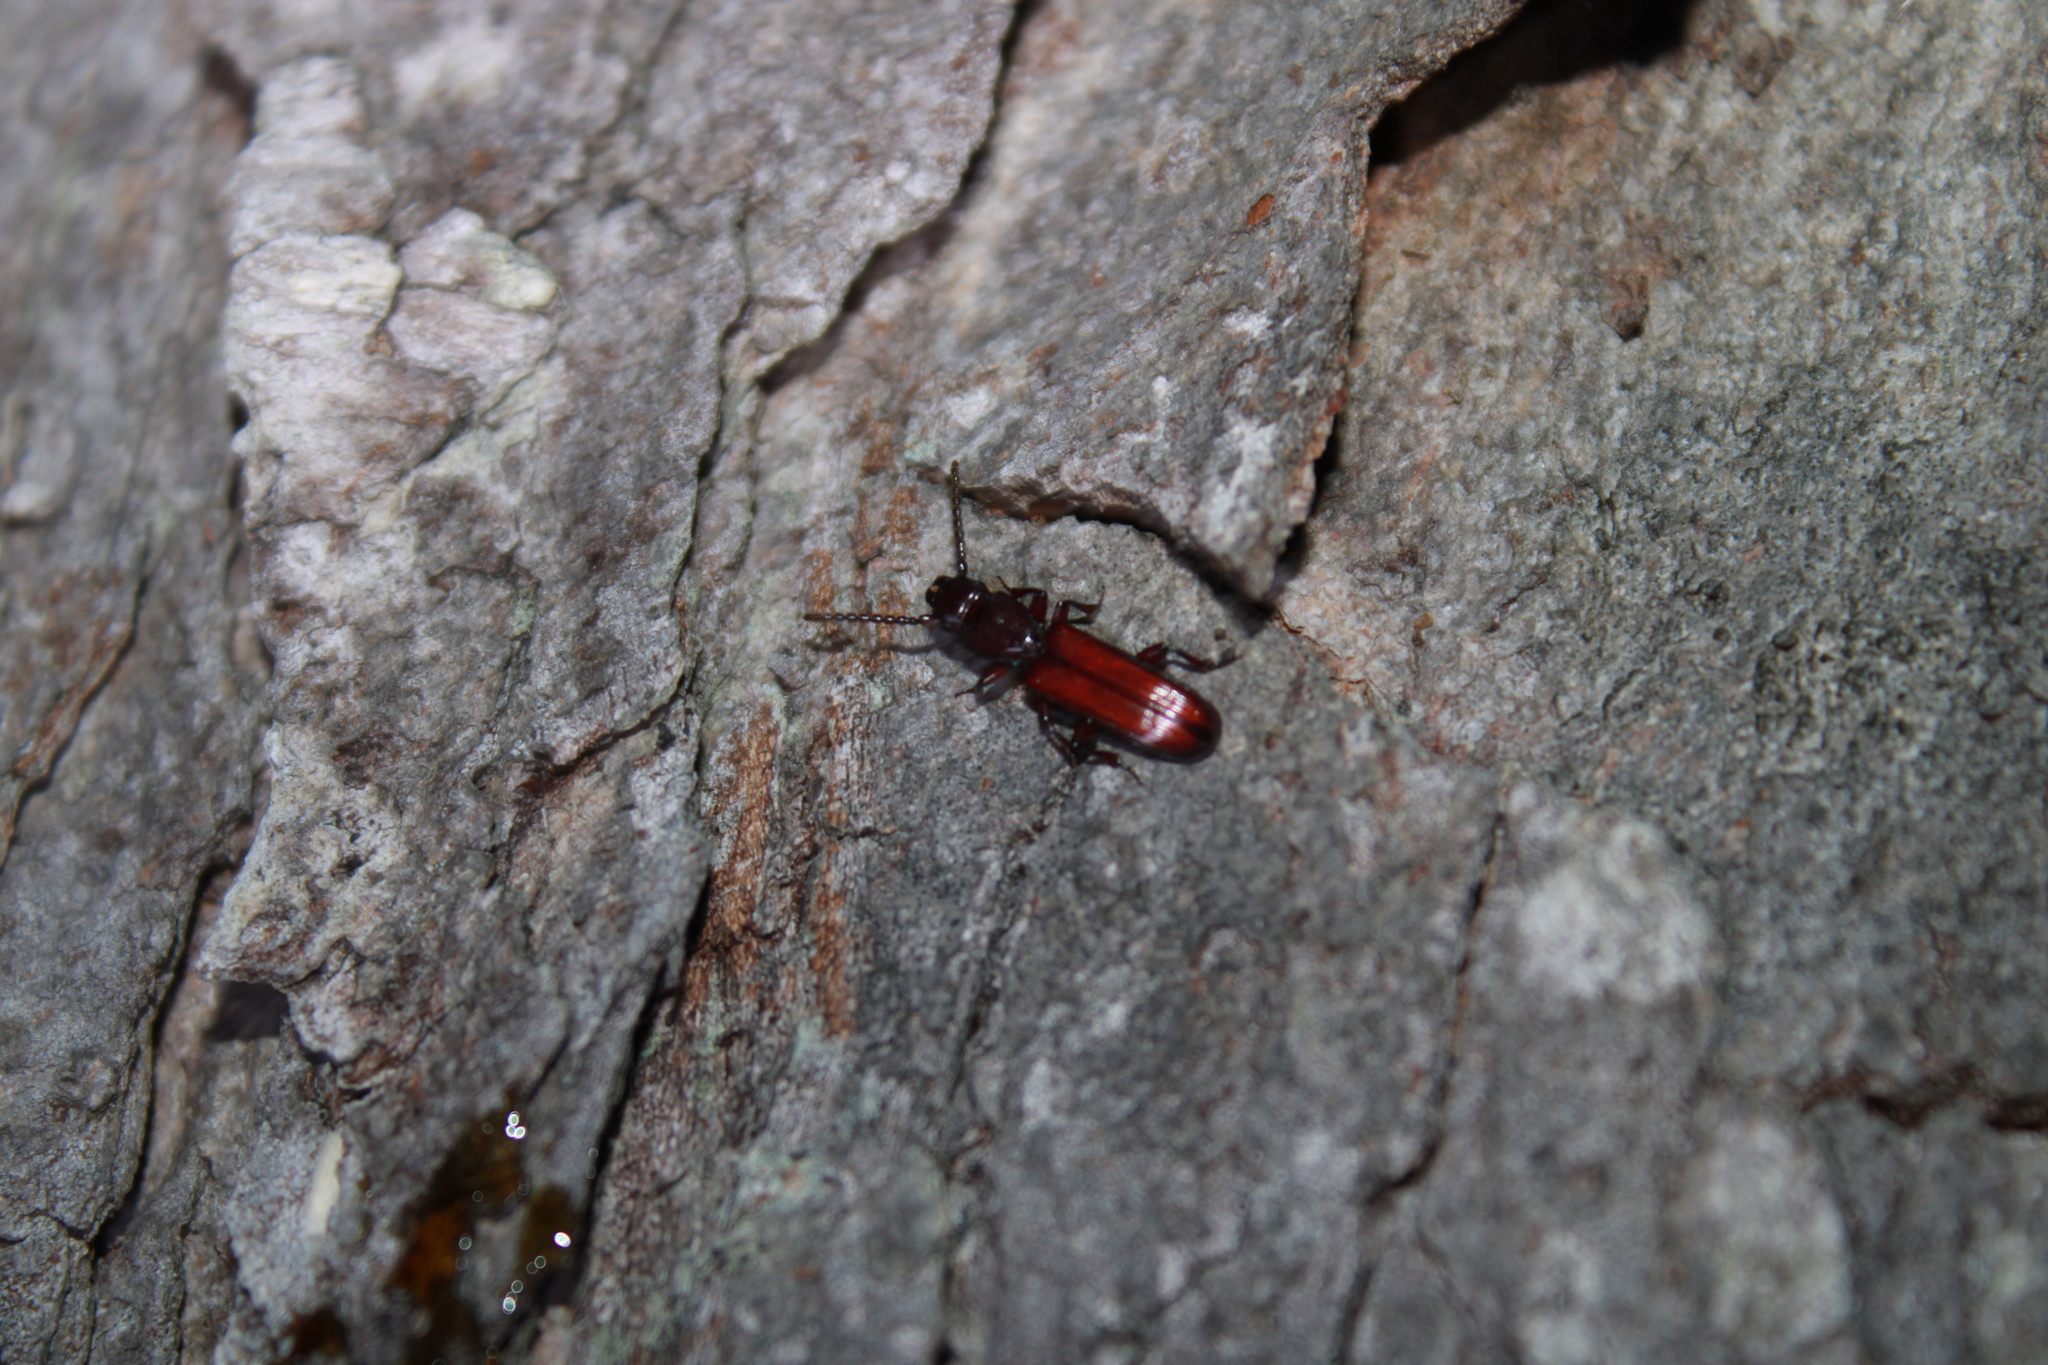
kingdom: Animalia
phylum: Arthropoda
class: Insecta
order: Coleoptera
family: Passandridae
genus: Catogenus
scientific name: Catogenus rufus
